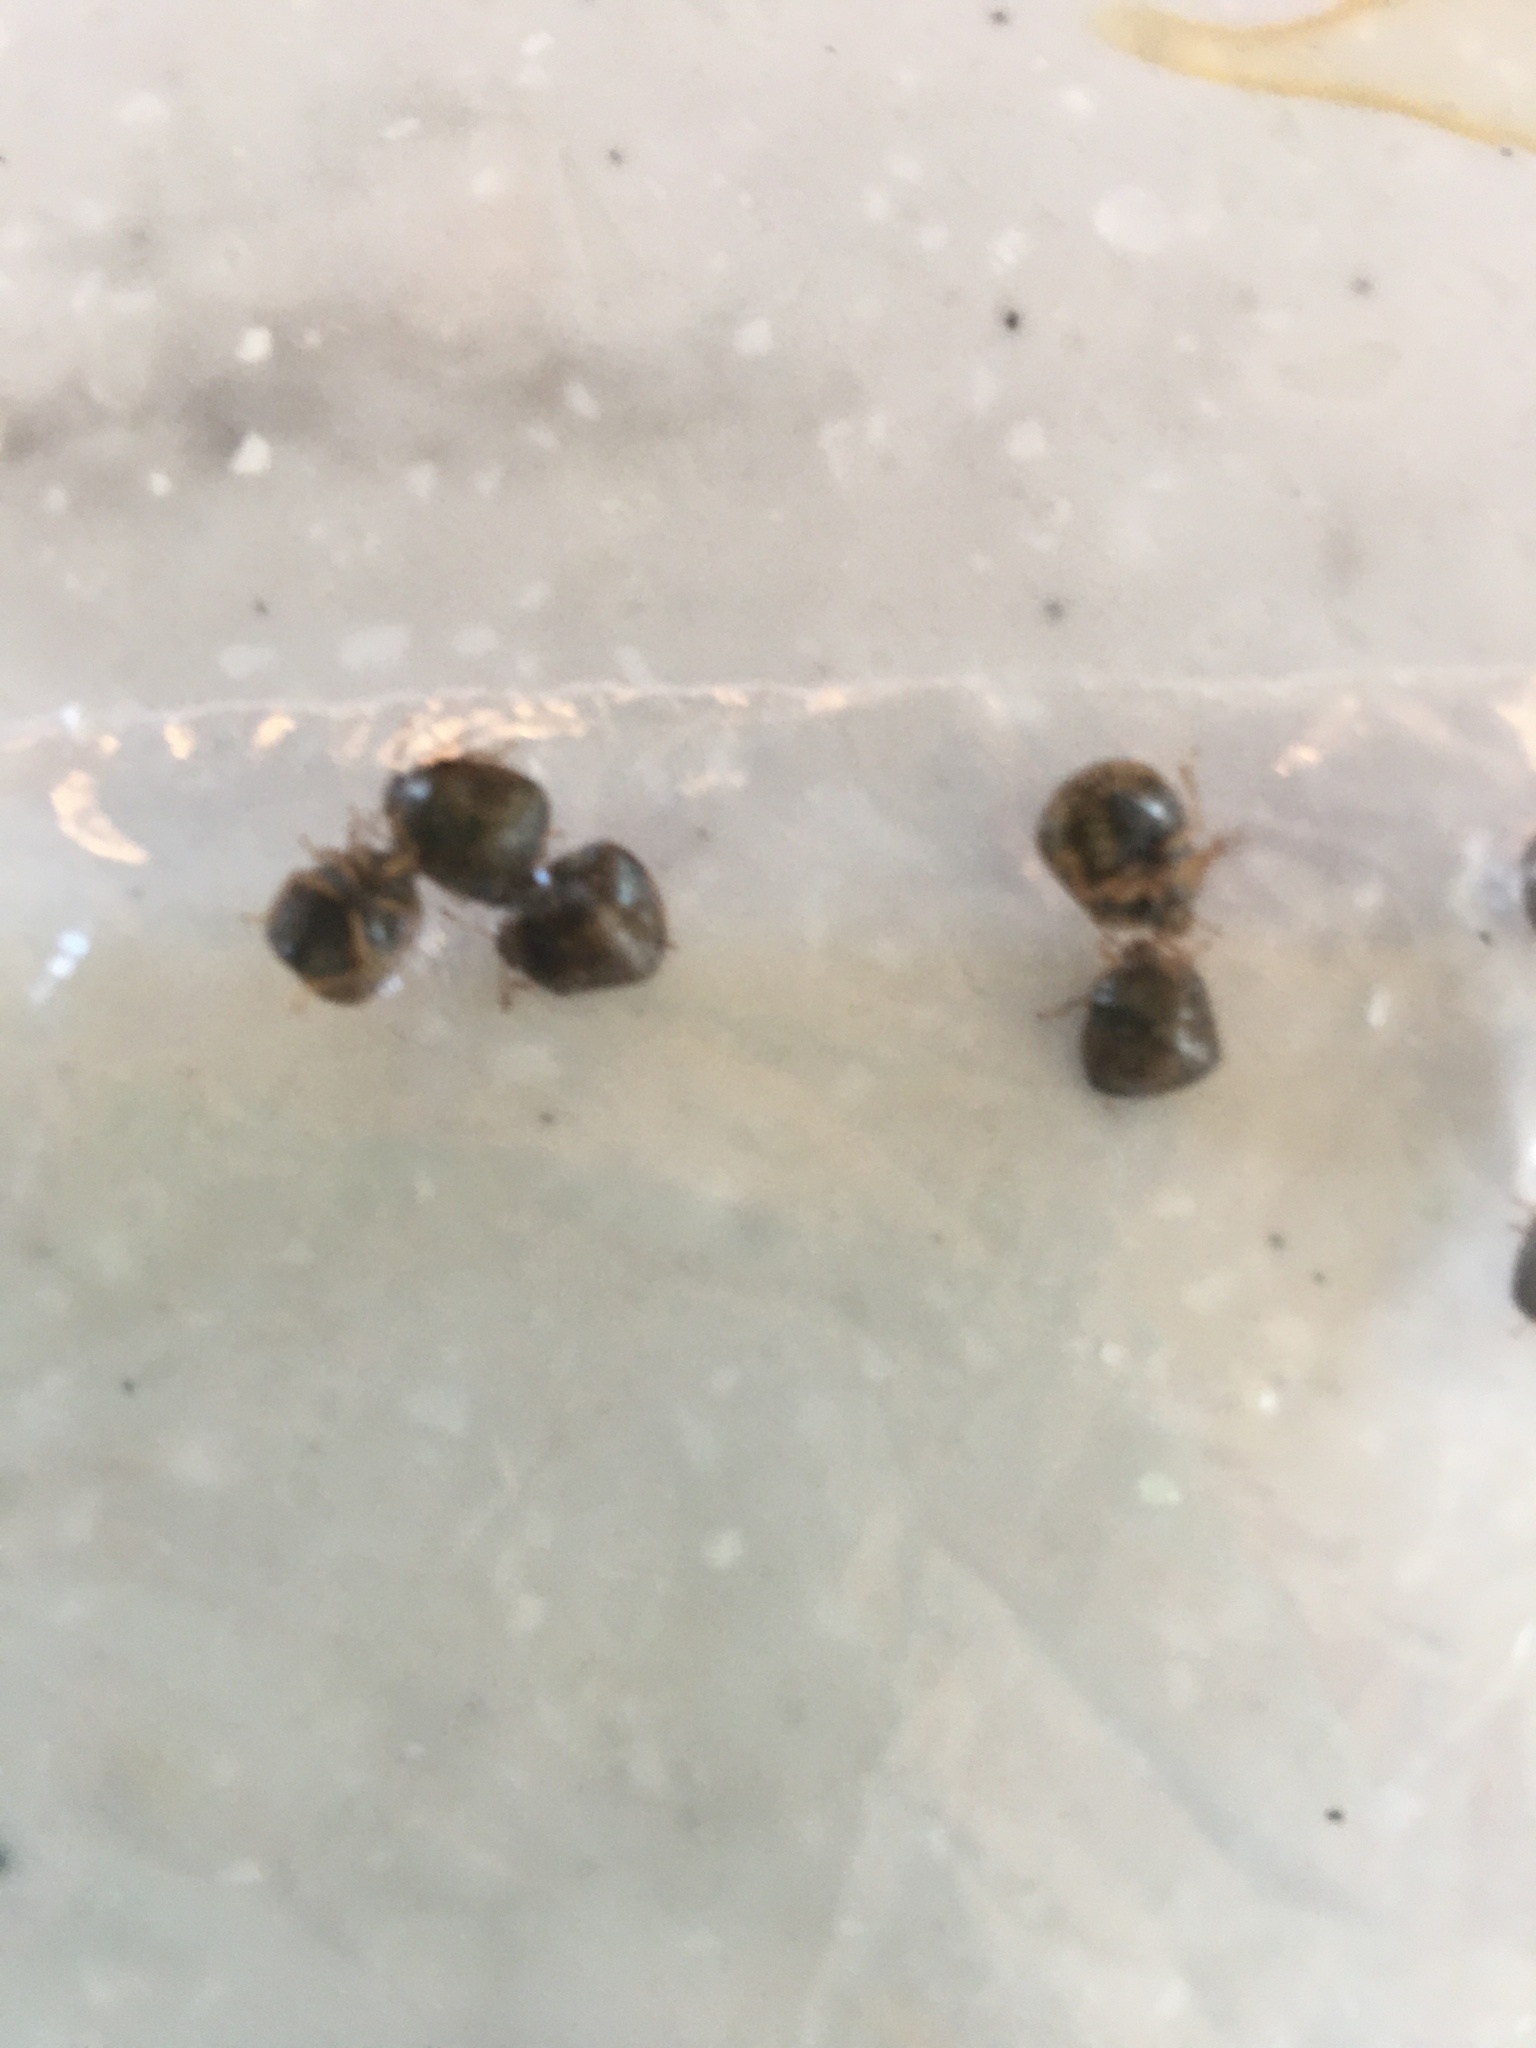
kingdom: Animalia
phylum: Arthropoda
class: Insecta
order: Hemiptera
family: Plataspidae
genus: Megacopta
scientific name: Megacopta cribraria
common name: Bean plataspid
